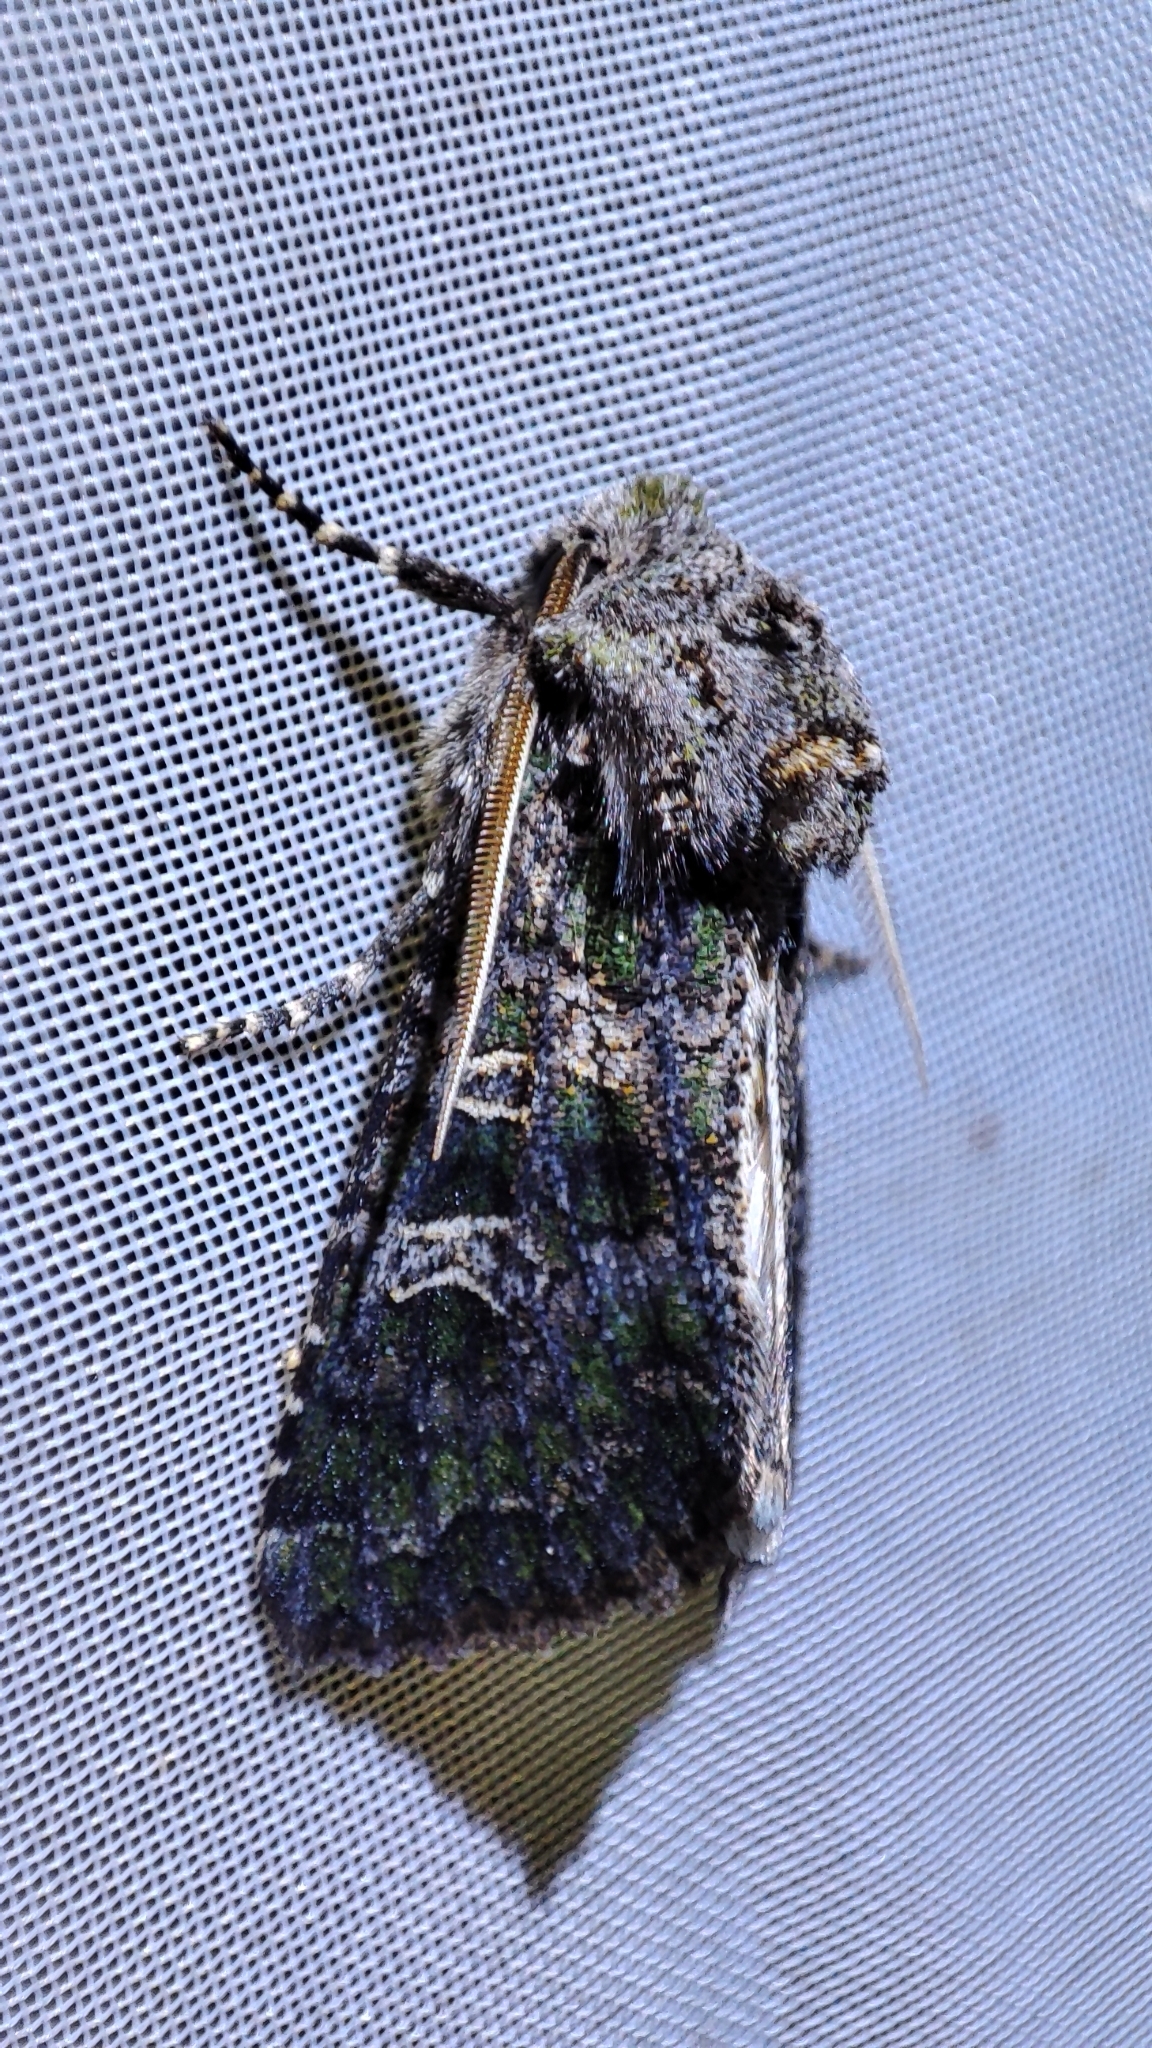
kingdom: Animalia
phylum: Arthropoda
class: Insecta
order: Lepidoptera
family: Noctuidae
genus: Sidemia
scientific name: Sidemia spilogramma
